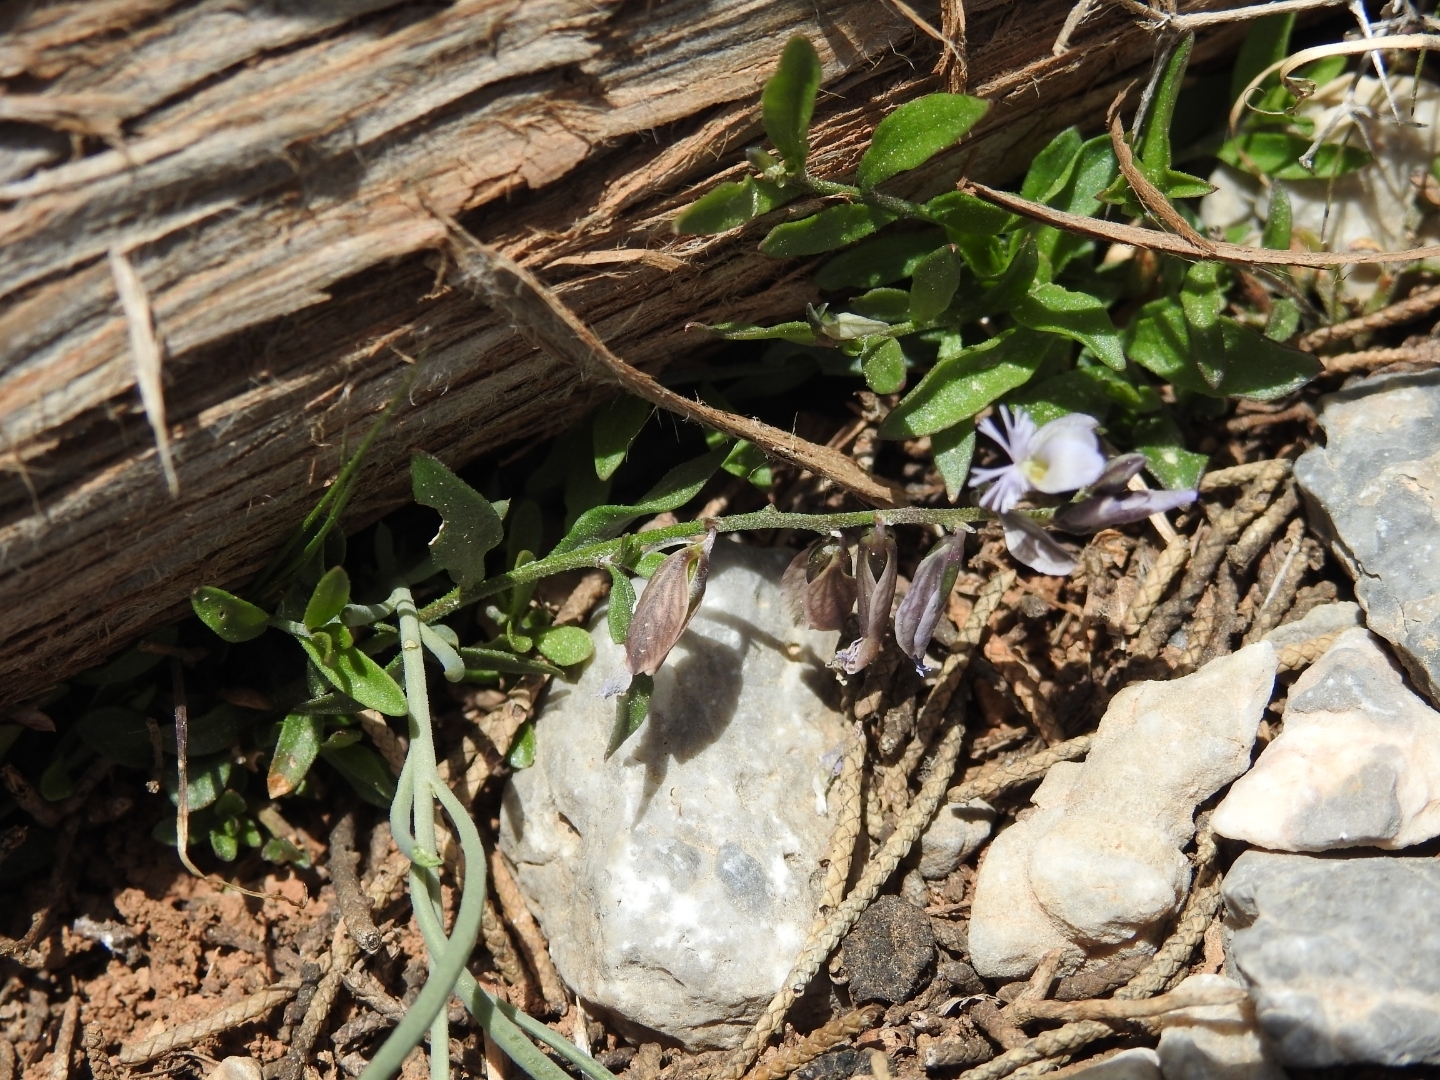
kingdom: Plantae
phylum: Tracheophyta
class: Magnoliopsida
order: Fabales
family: Polygalaceae
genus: Polygala
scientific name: Polygala venulosa
